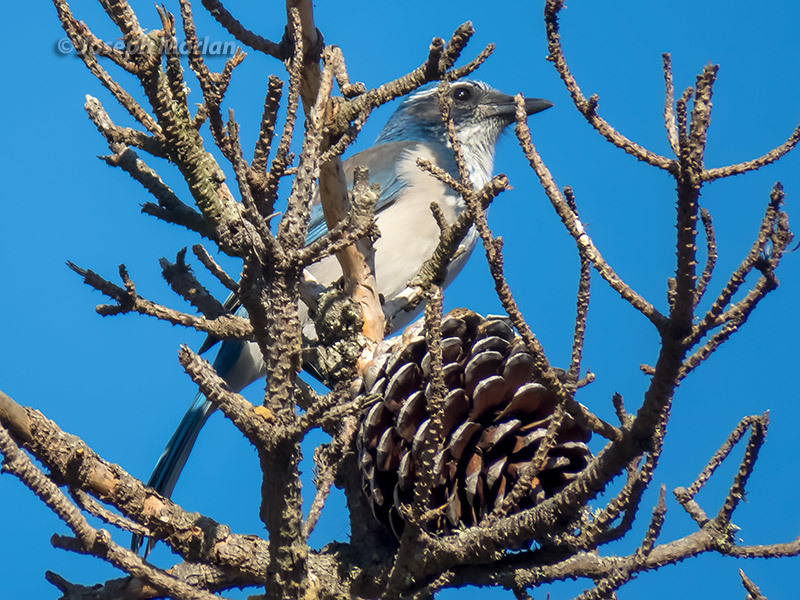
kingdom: Animalia
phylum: Chordata
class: Aves
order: Passeriformes
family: Corvidae
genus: Aphelocoma
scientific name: Aphelocoma californica
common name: California scrub-jay
